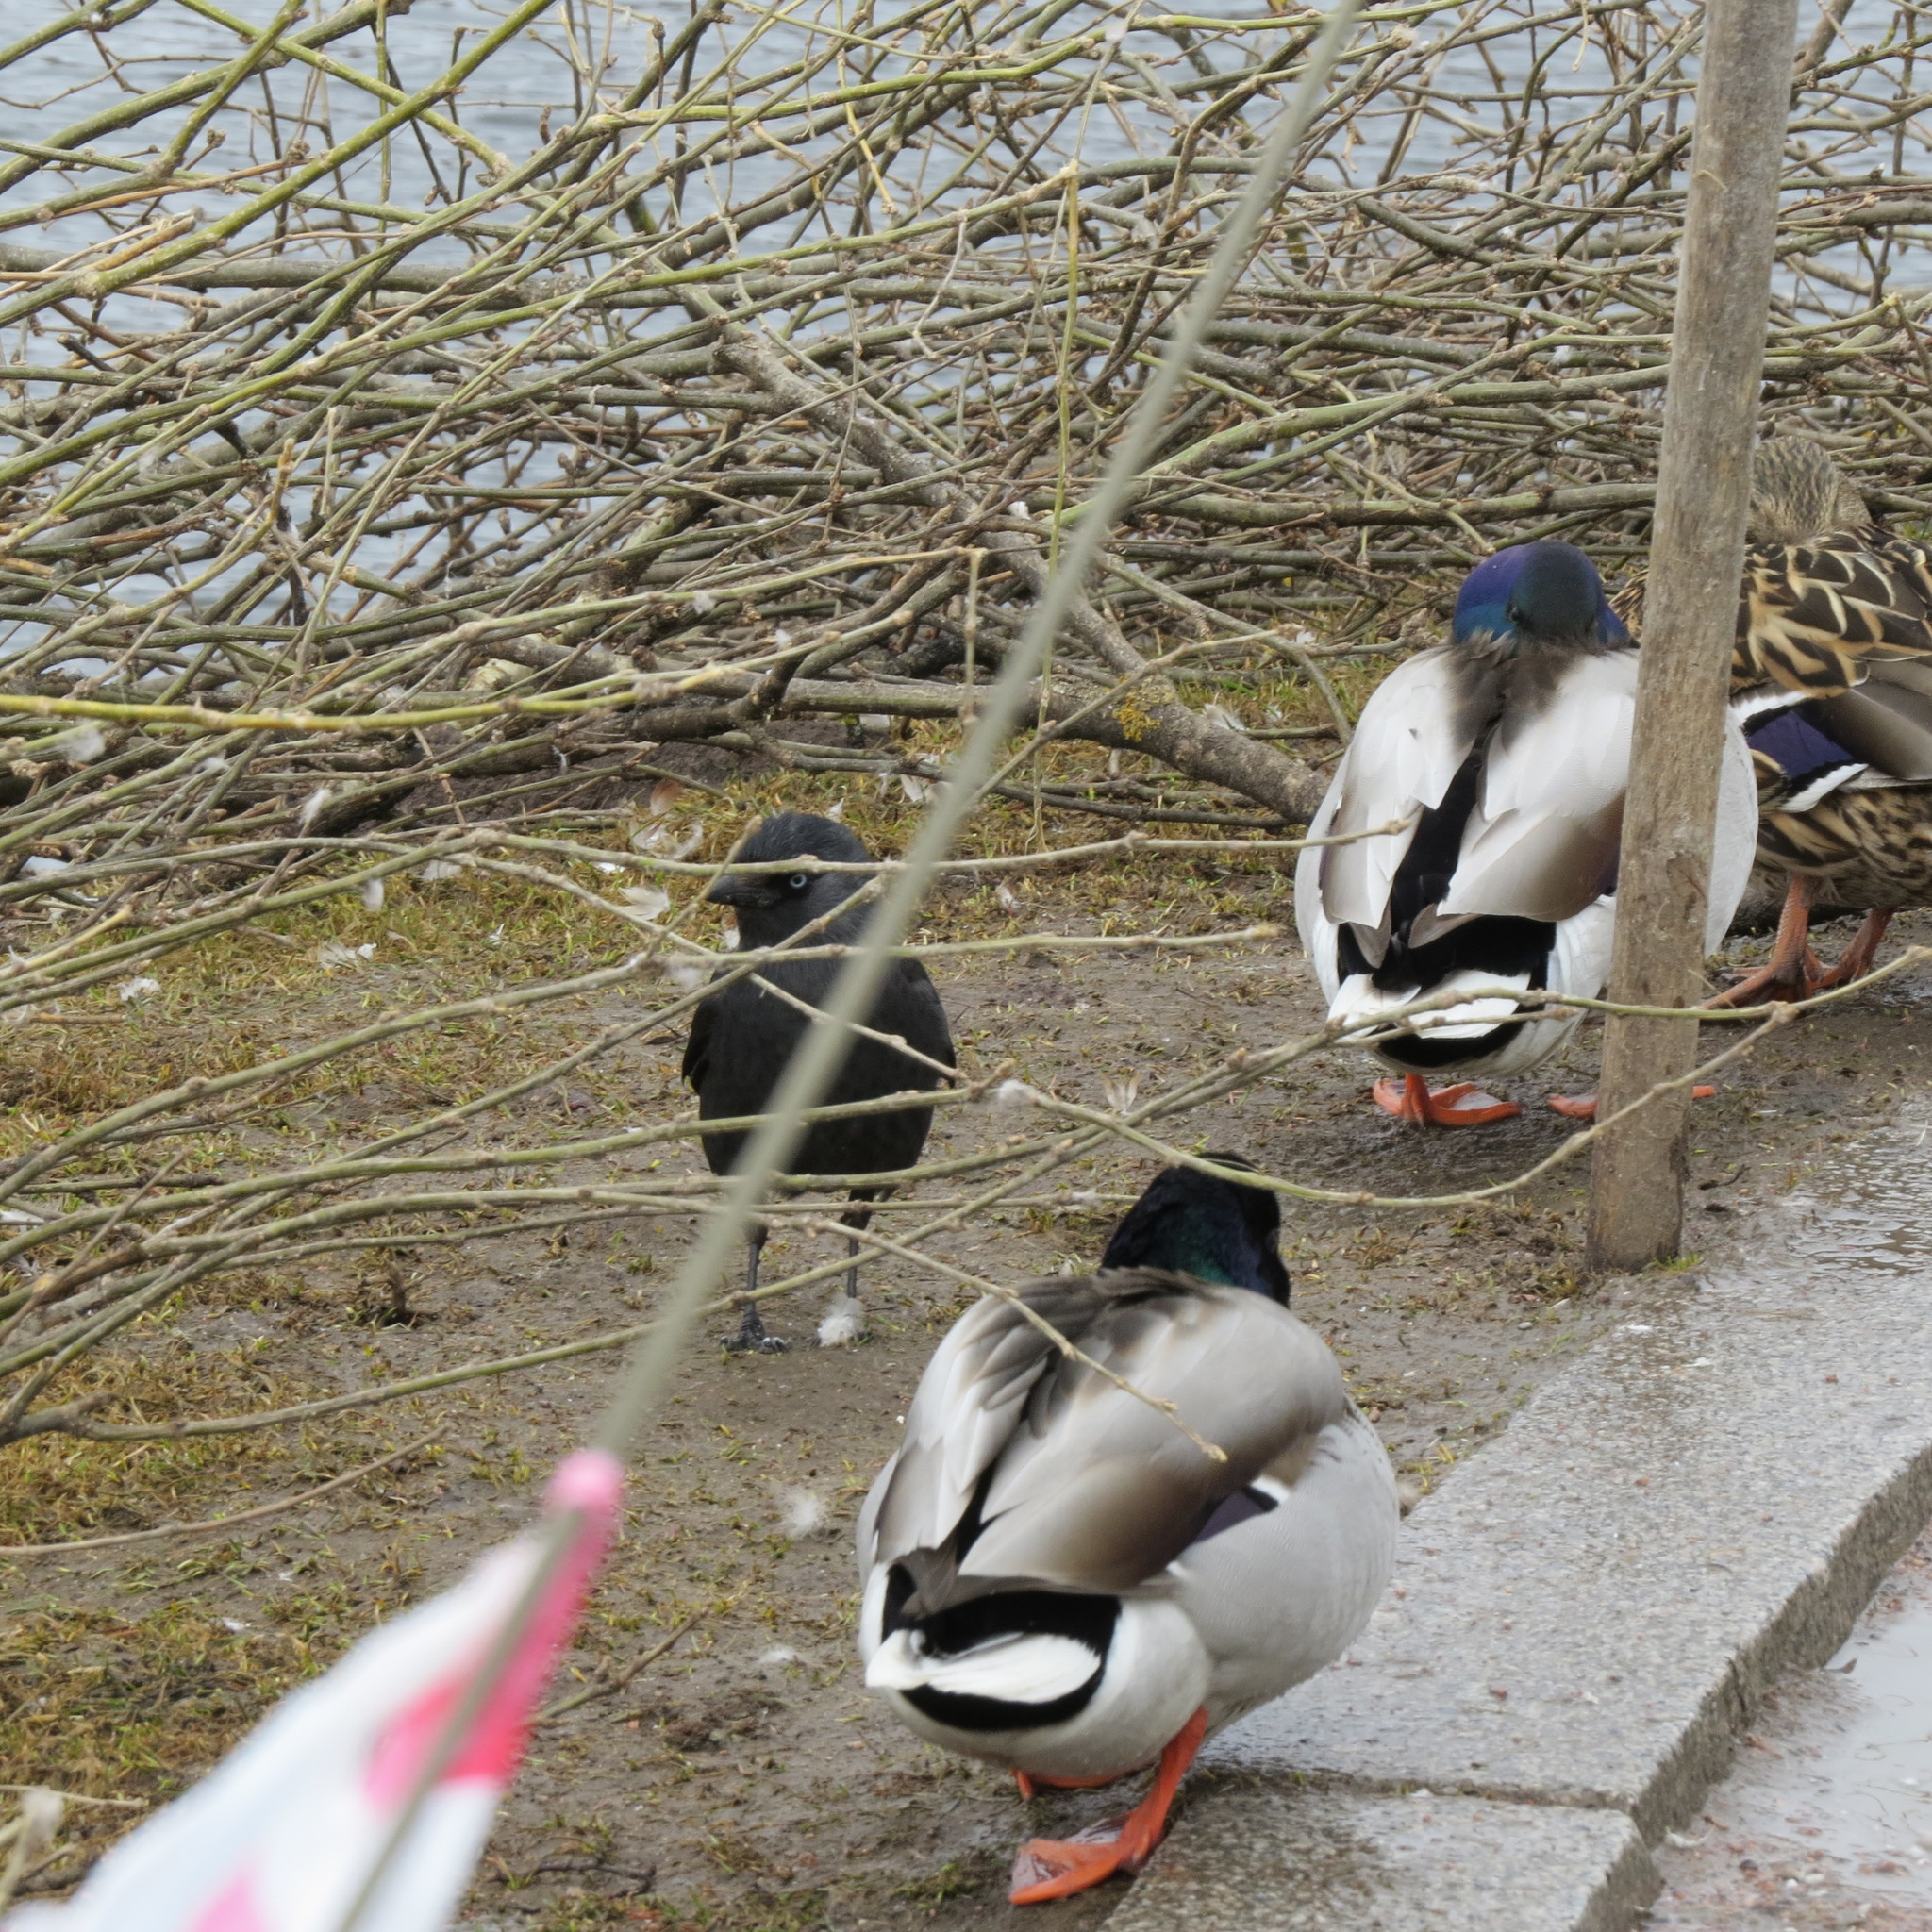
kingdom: Animalia
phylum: Chordata
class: Aves
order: Passeriformes
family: Corvidae
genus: Coloeus
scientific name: Coloeus monedula
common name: Western jackdaw
